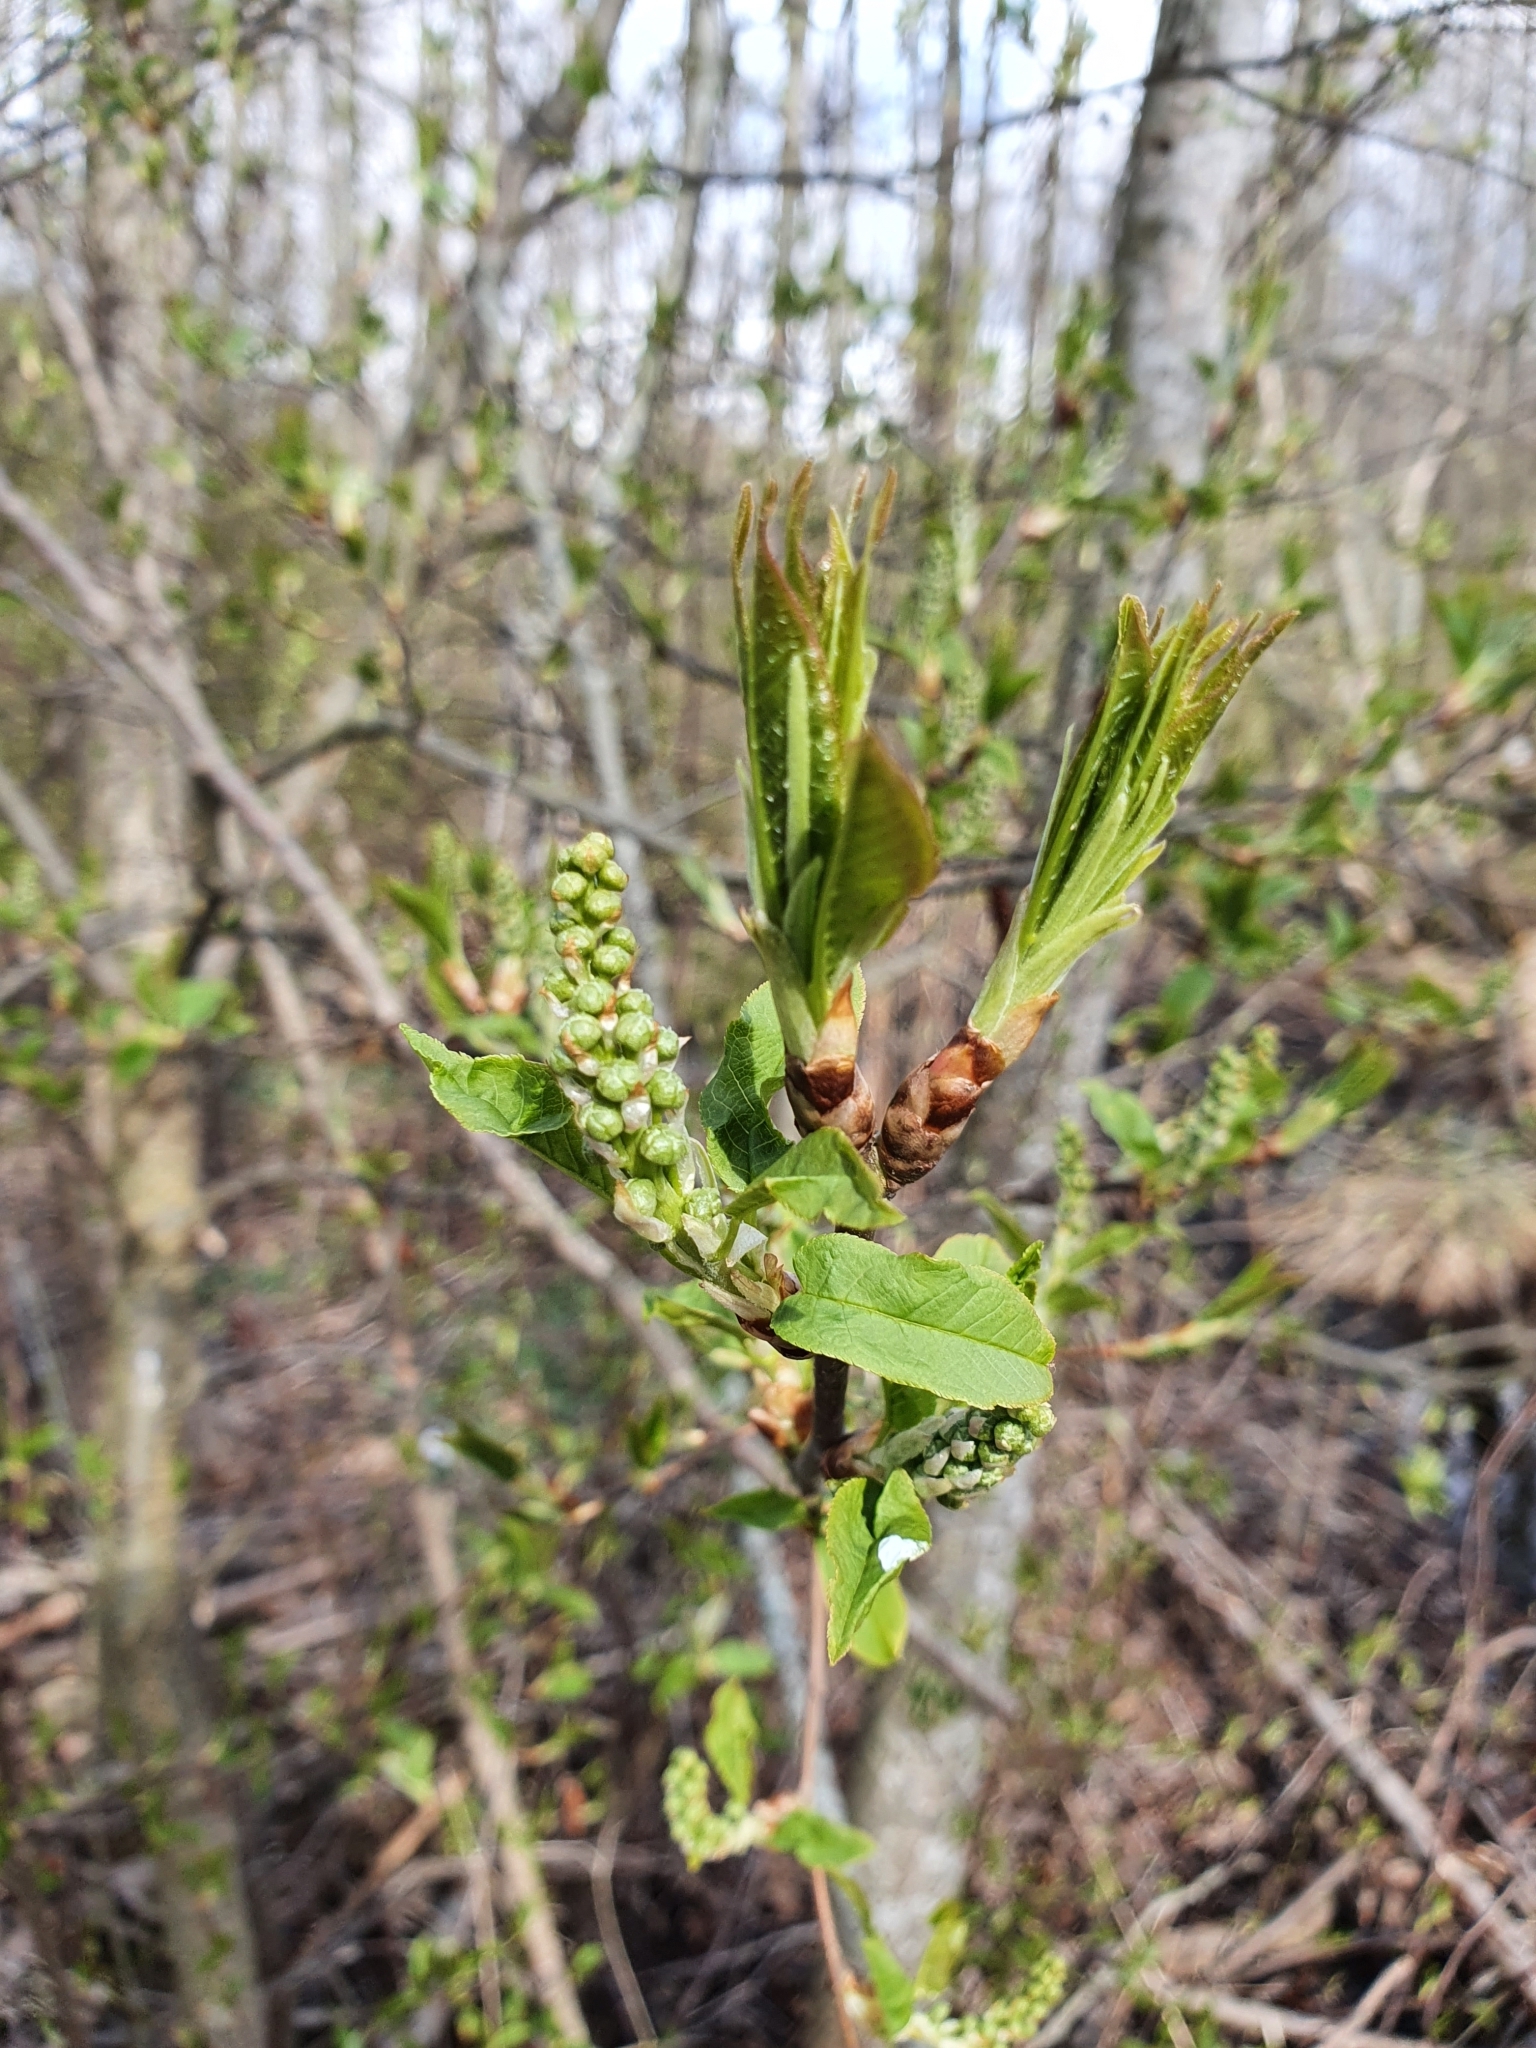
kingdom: Plantae
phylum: Tracheophyta
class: Magnoliopsida
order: Rosales
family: Rosaceae
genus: Prunus
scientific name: Prunus padus
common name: Bird cherry
